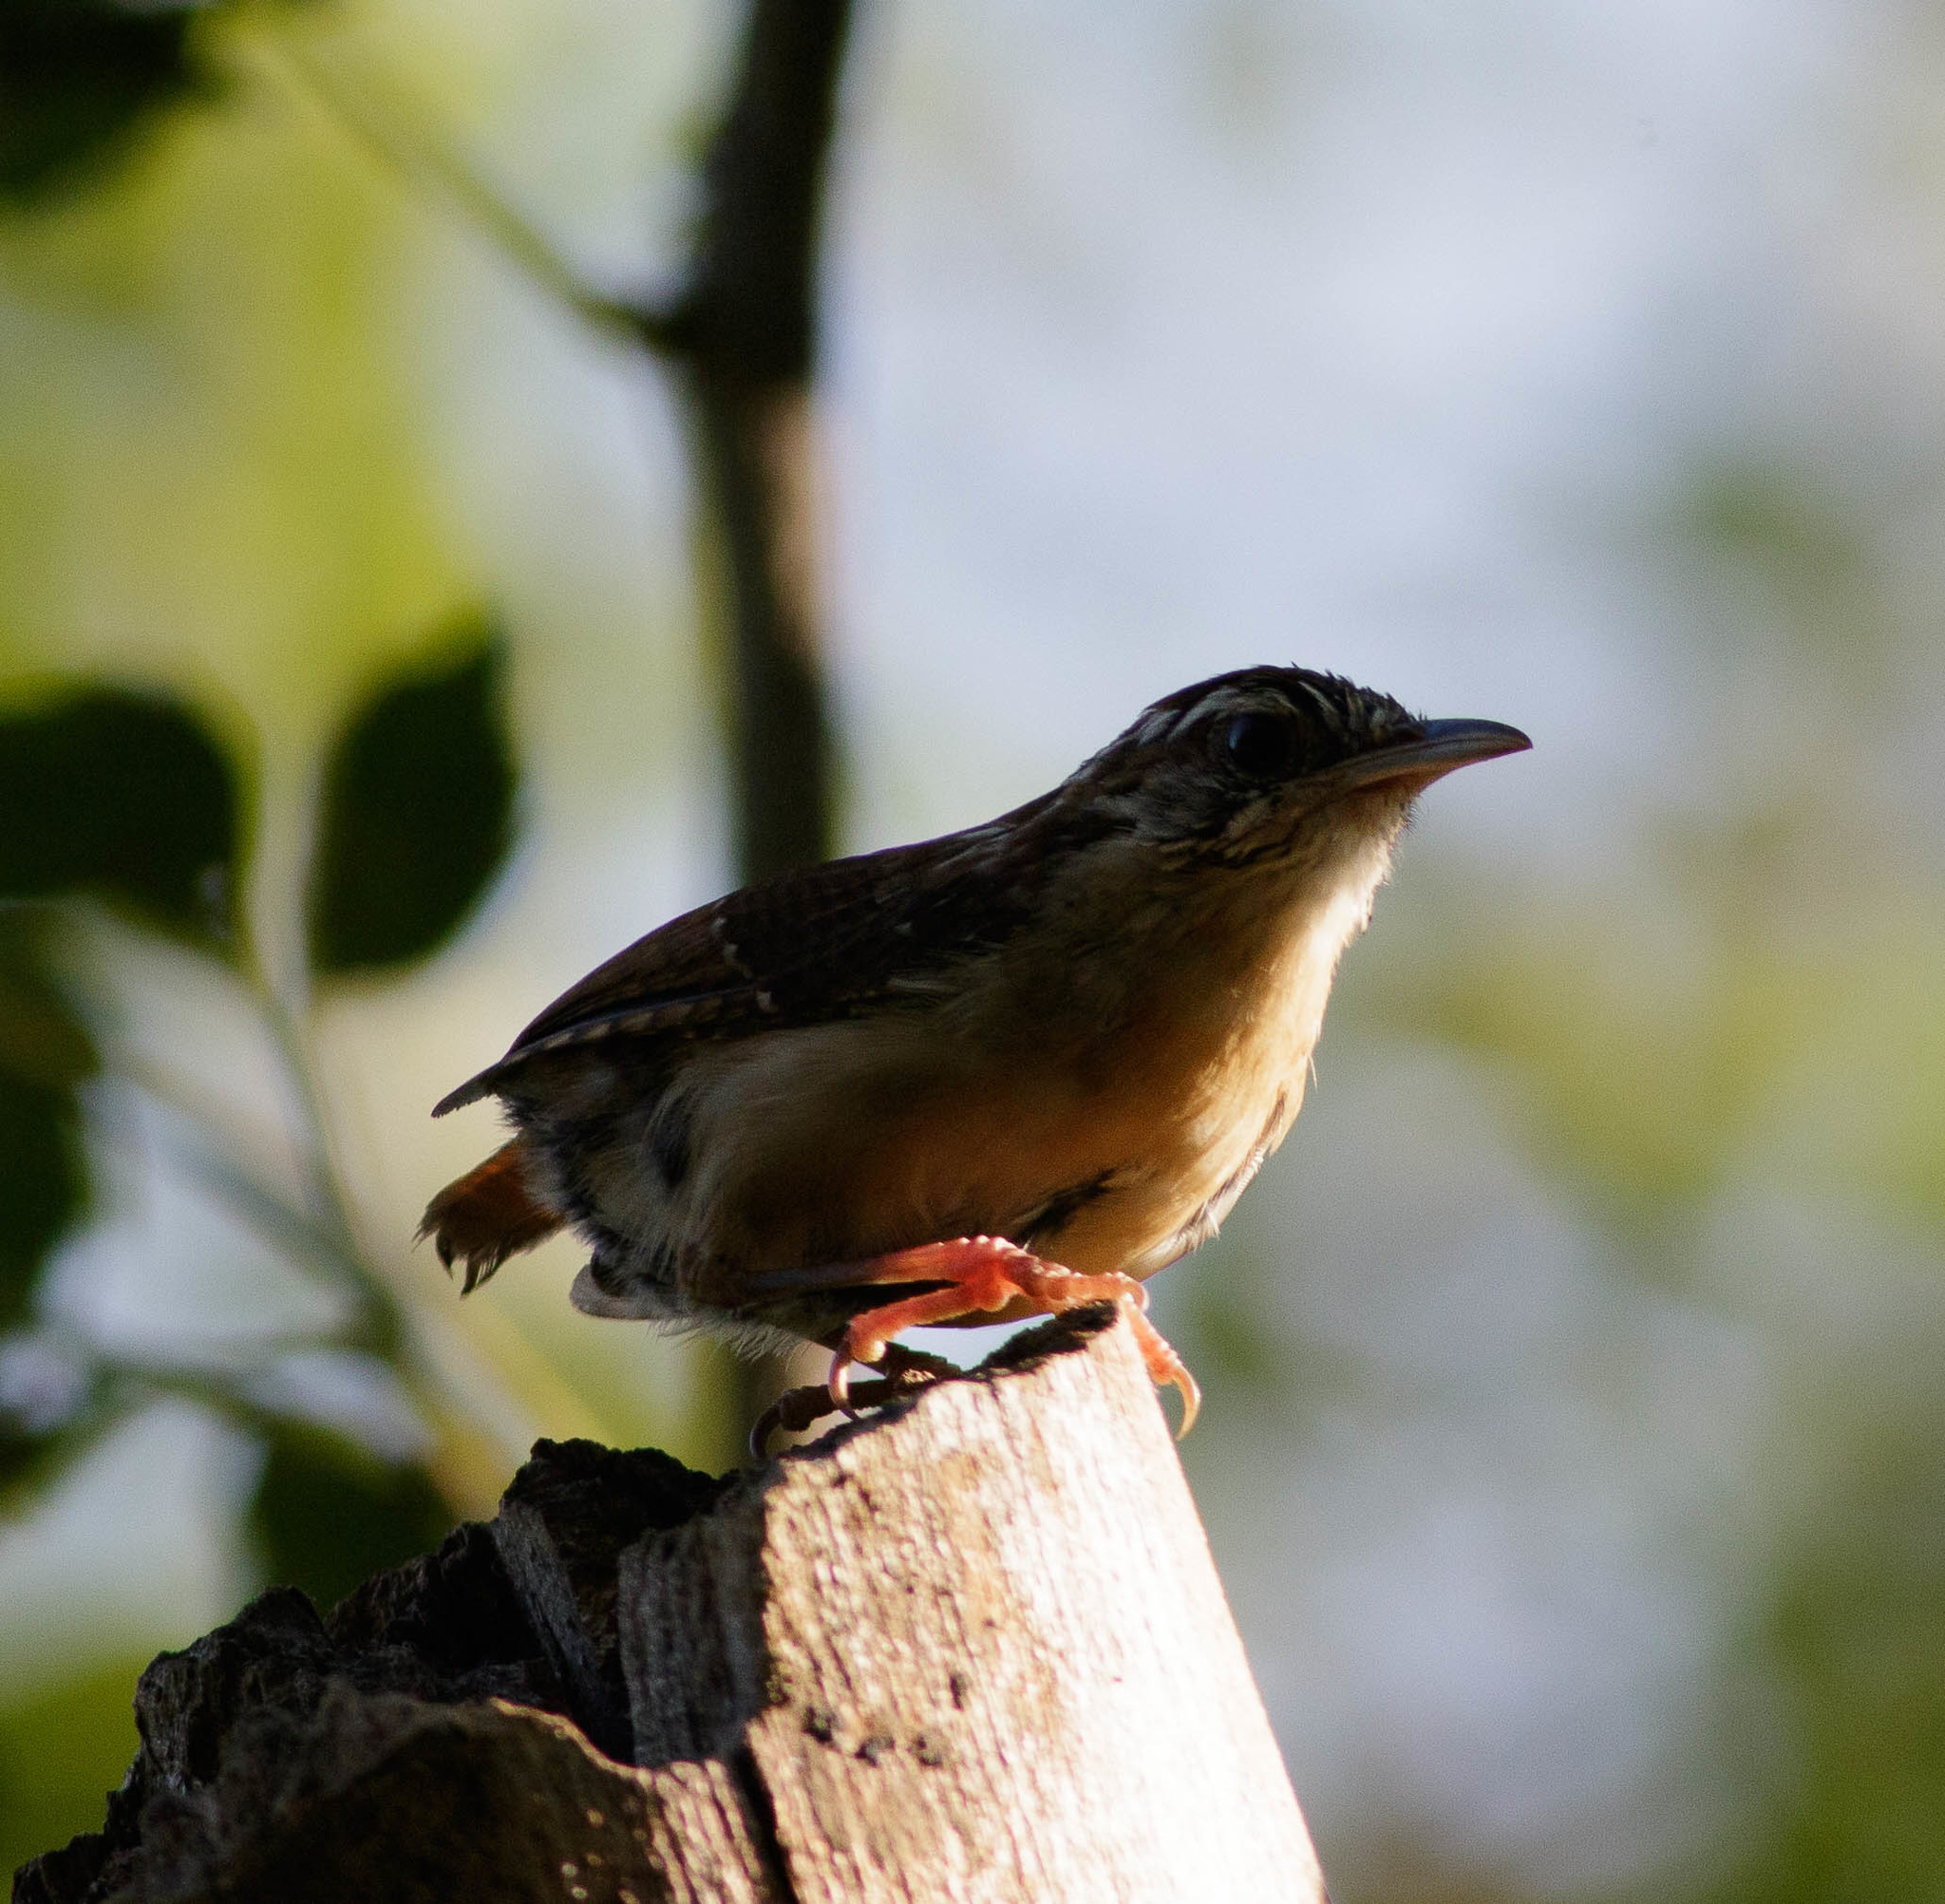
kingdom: Animalia
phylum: Chordata
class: Aves
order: Passeriformes
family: Troglodytidae
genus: Thryothorus
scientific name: Thryothorus ludovicianus
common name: Carolina wren
